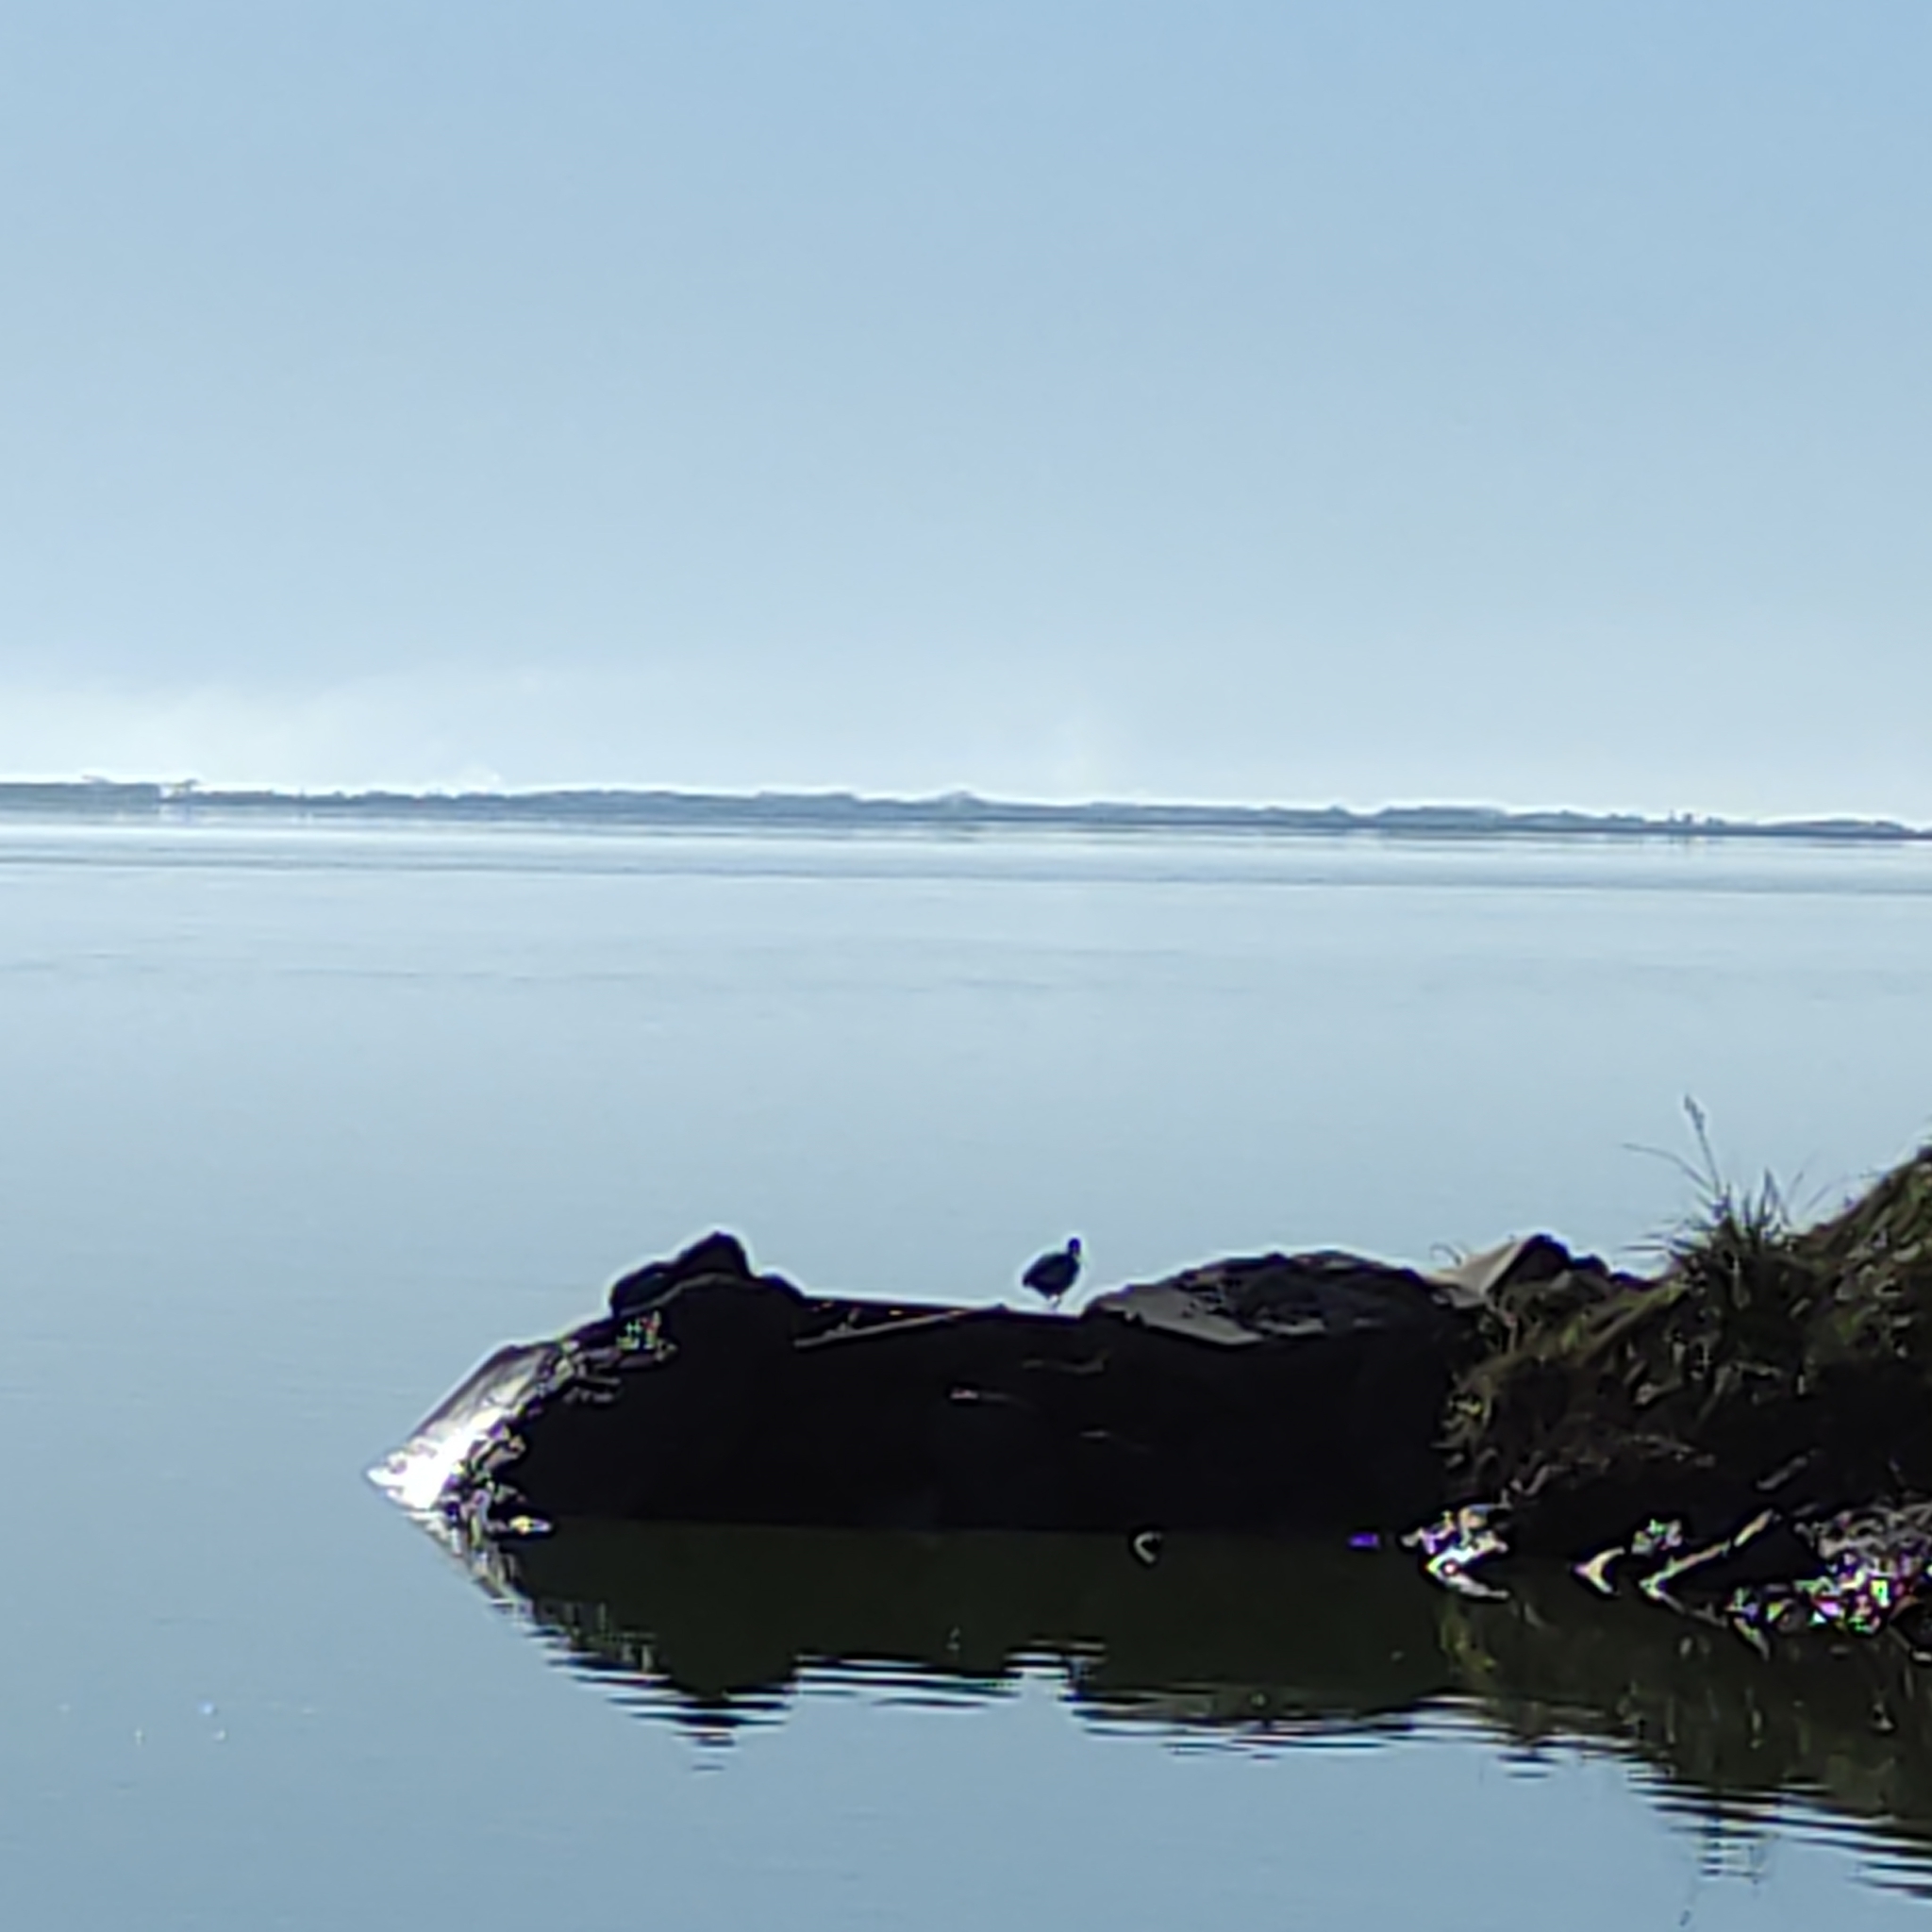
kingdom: Animalia
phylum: Chordata
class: Aves
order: Pelecaniformes
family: Ardeidae
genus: Egretta
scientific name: Egretta novaehollandiae
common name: White-faced heron
